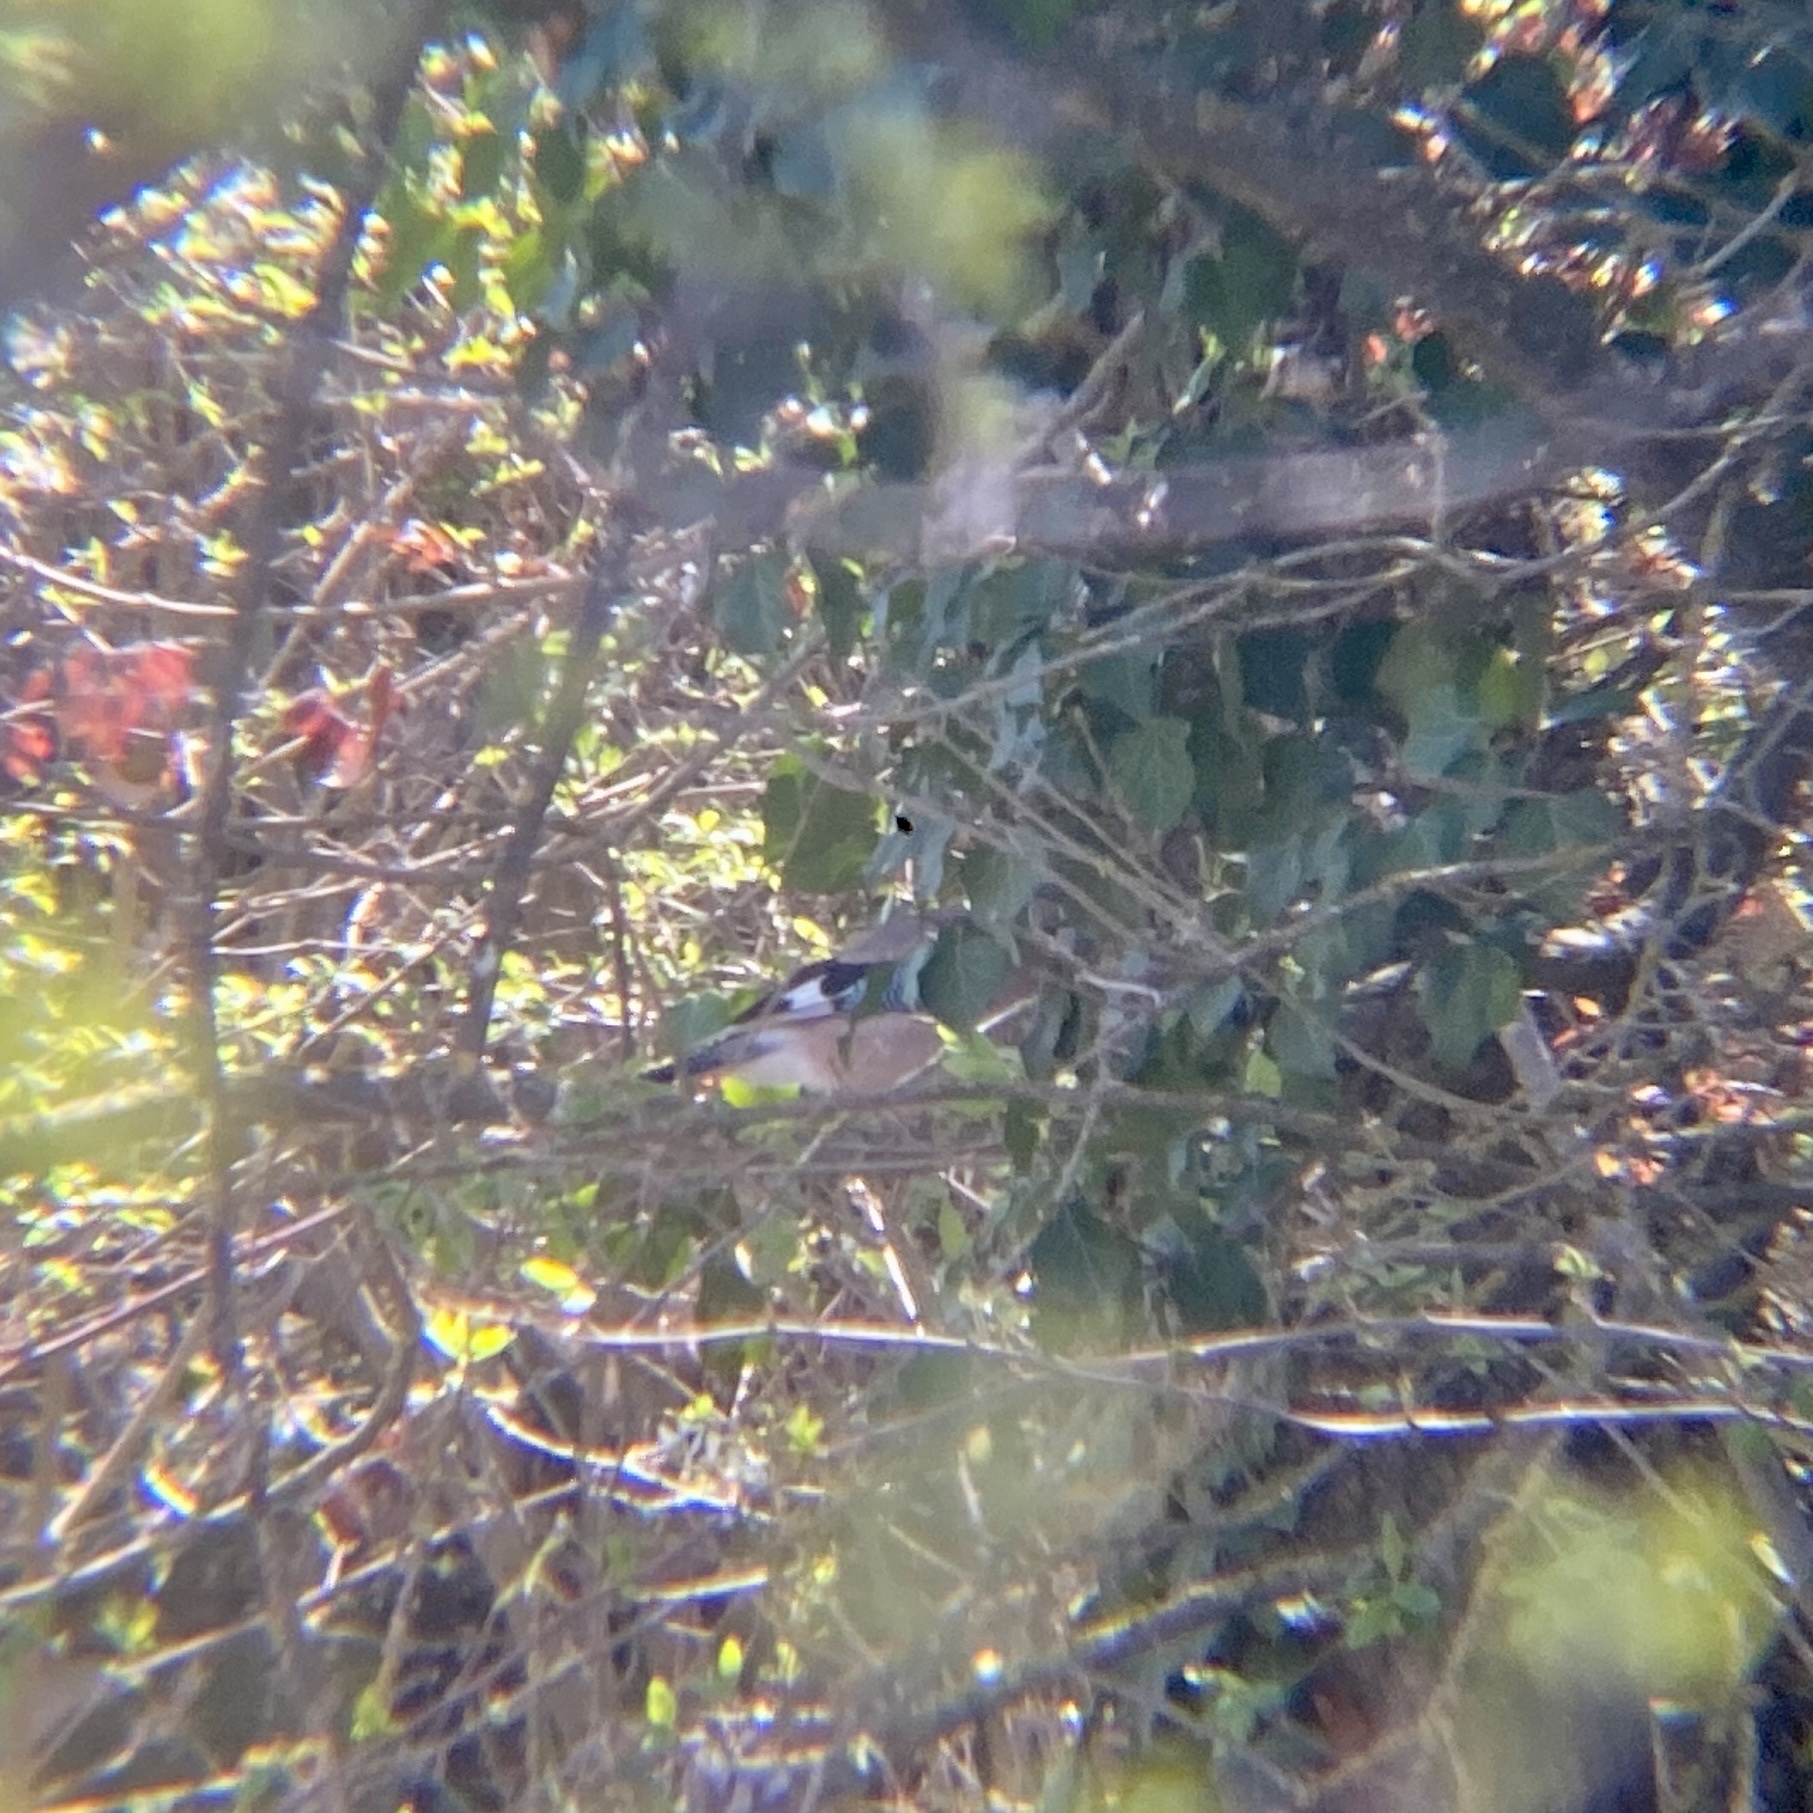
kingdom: Animalia
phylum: Chordata
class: Aves
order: Passeriformes
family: Corvidae
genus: Garrulus
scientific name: Garrulus glandarius
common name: Eurasian jay
